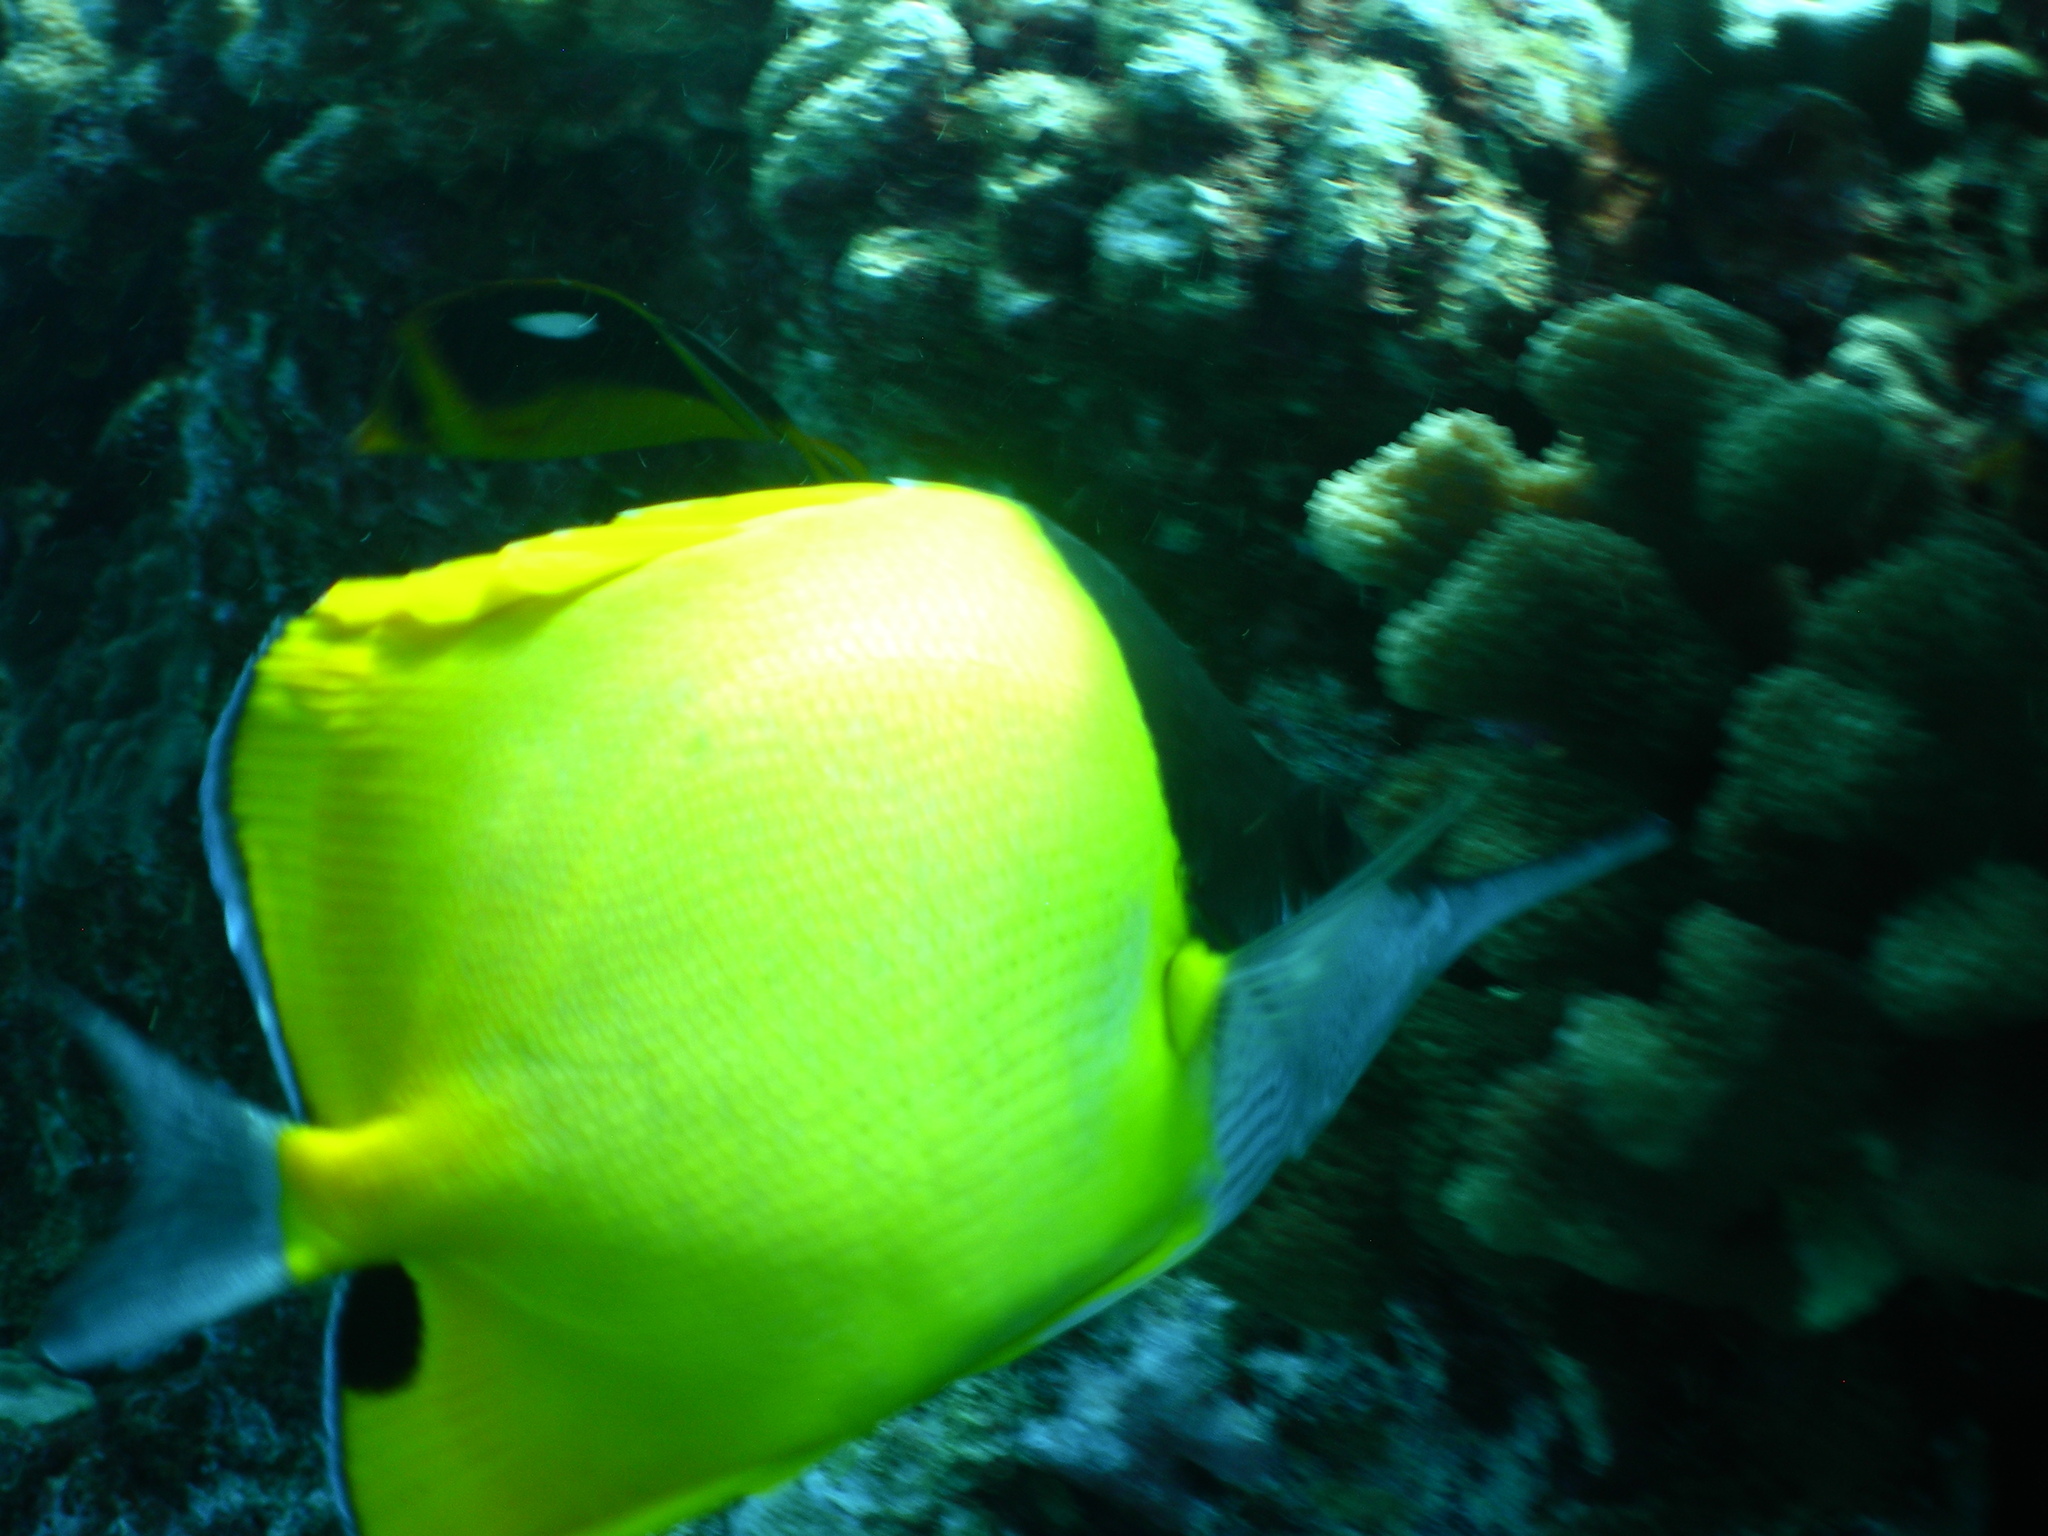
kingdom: Animalia
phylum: Chordata
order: Perciformes
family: Chaetodontidae
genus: Forcipiger
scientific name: Forcipiger longirostris
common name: Longnose butterflyfish
